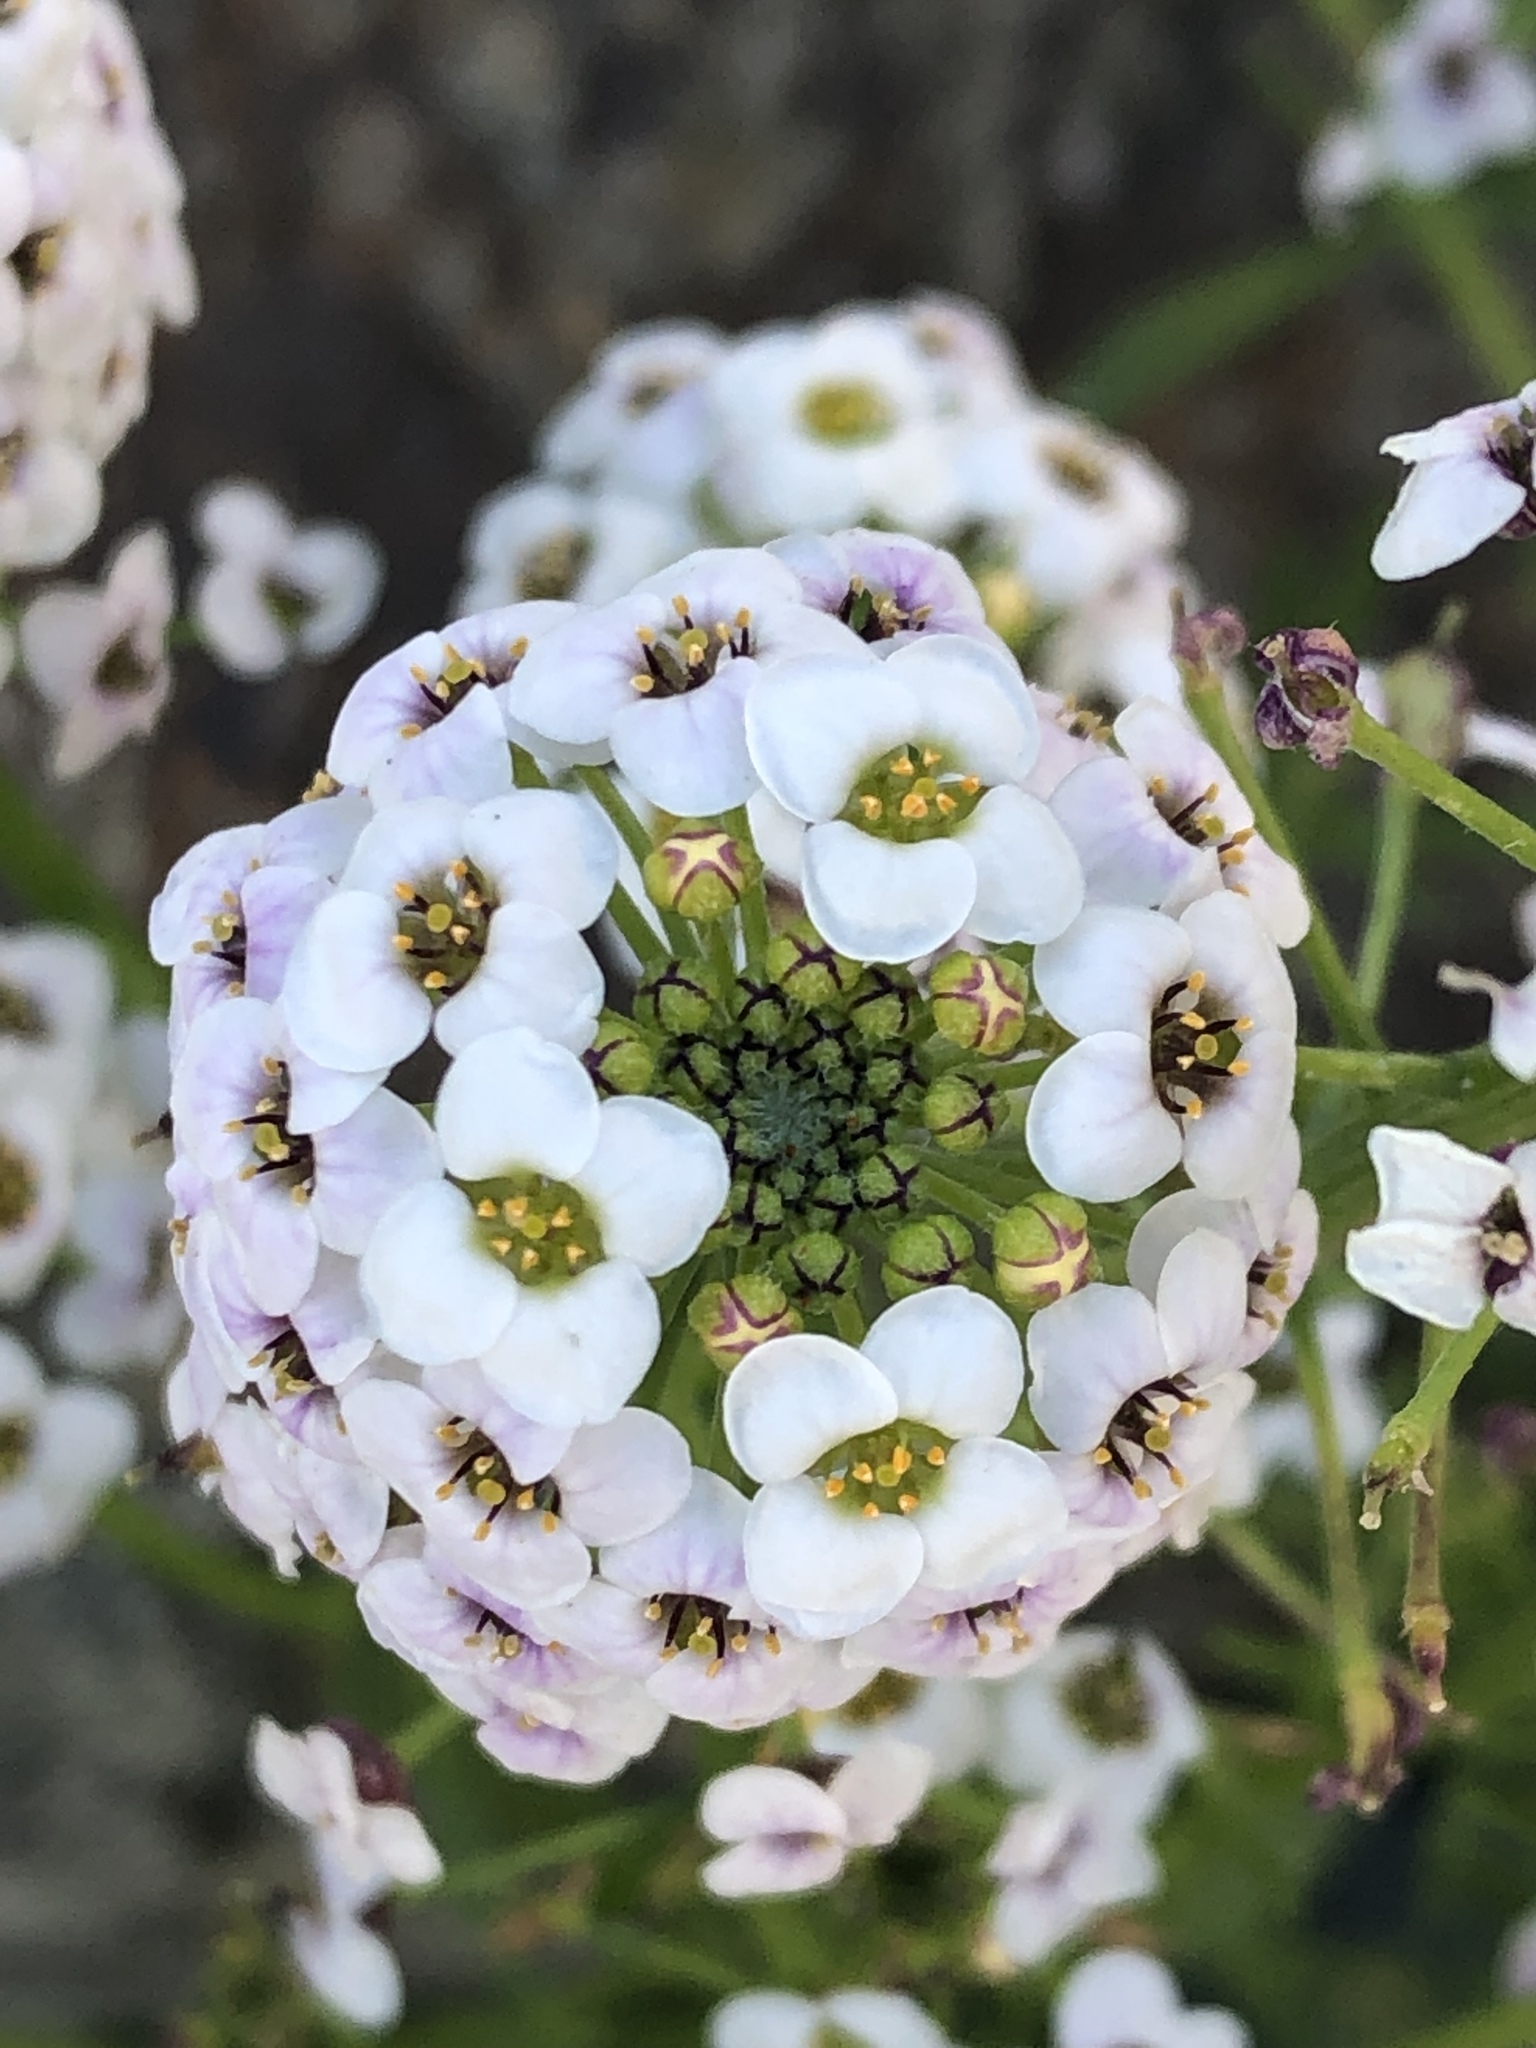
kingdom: Plantae
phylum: Tracheophyta
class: Magnoliopsida
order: Brassicales
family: Brassicaceae
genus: Lobularia
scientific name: Lobularia maritima
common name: Sweet alison
